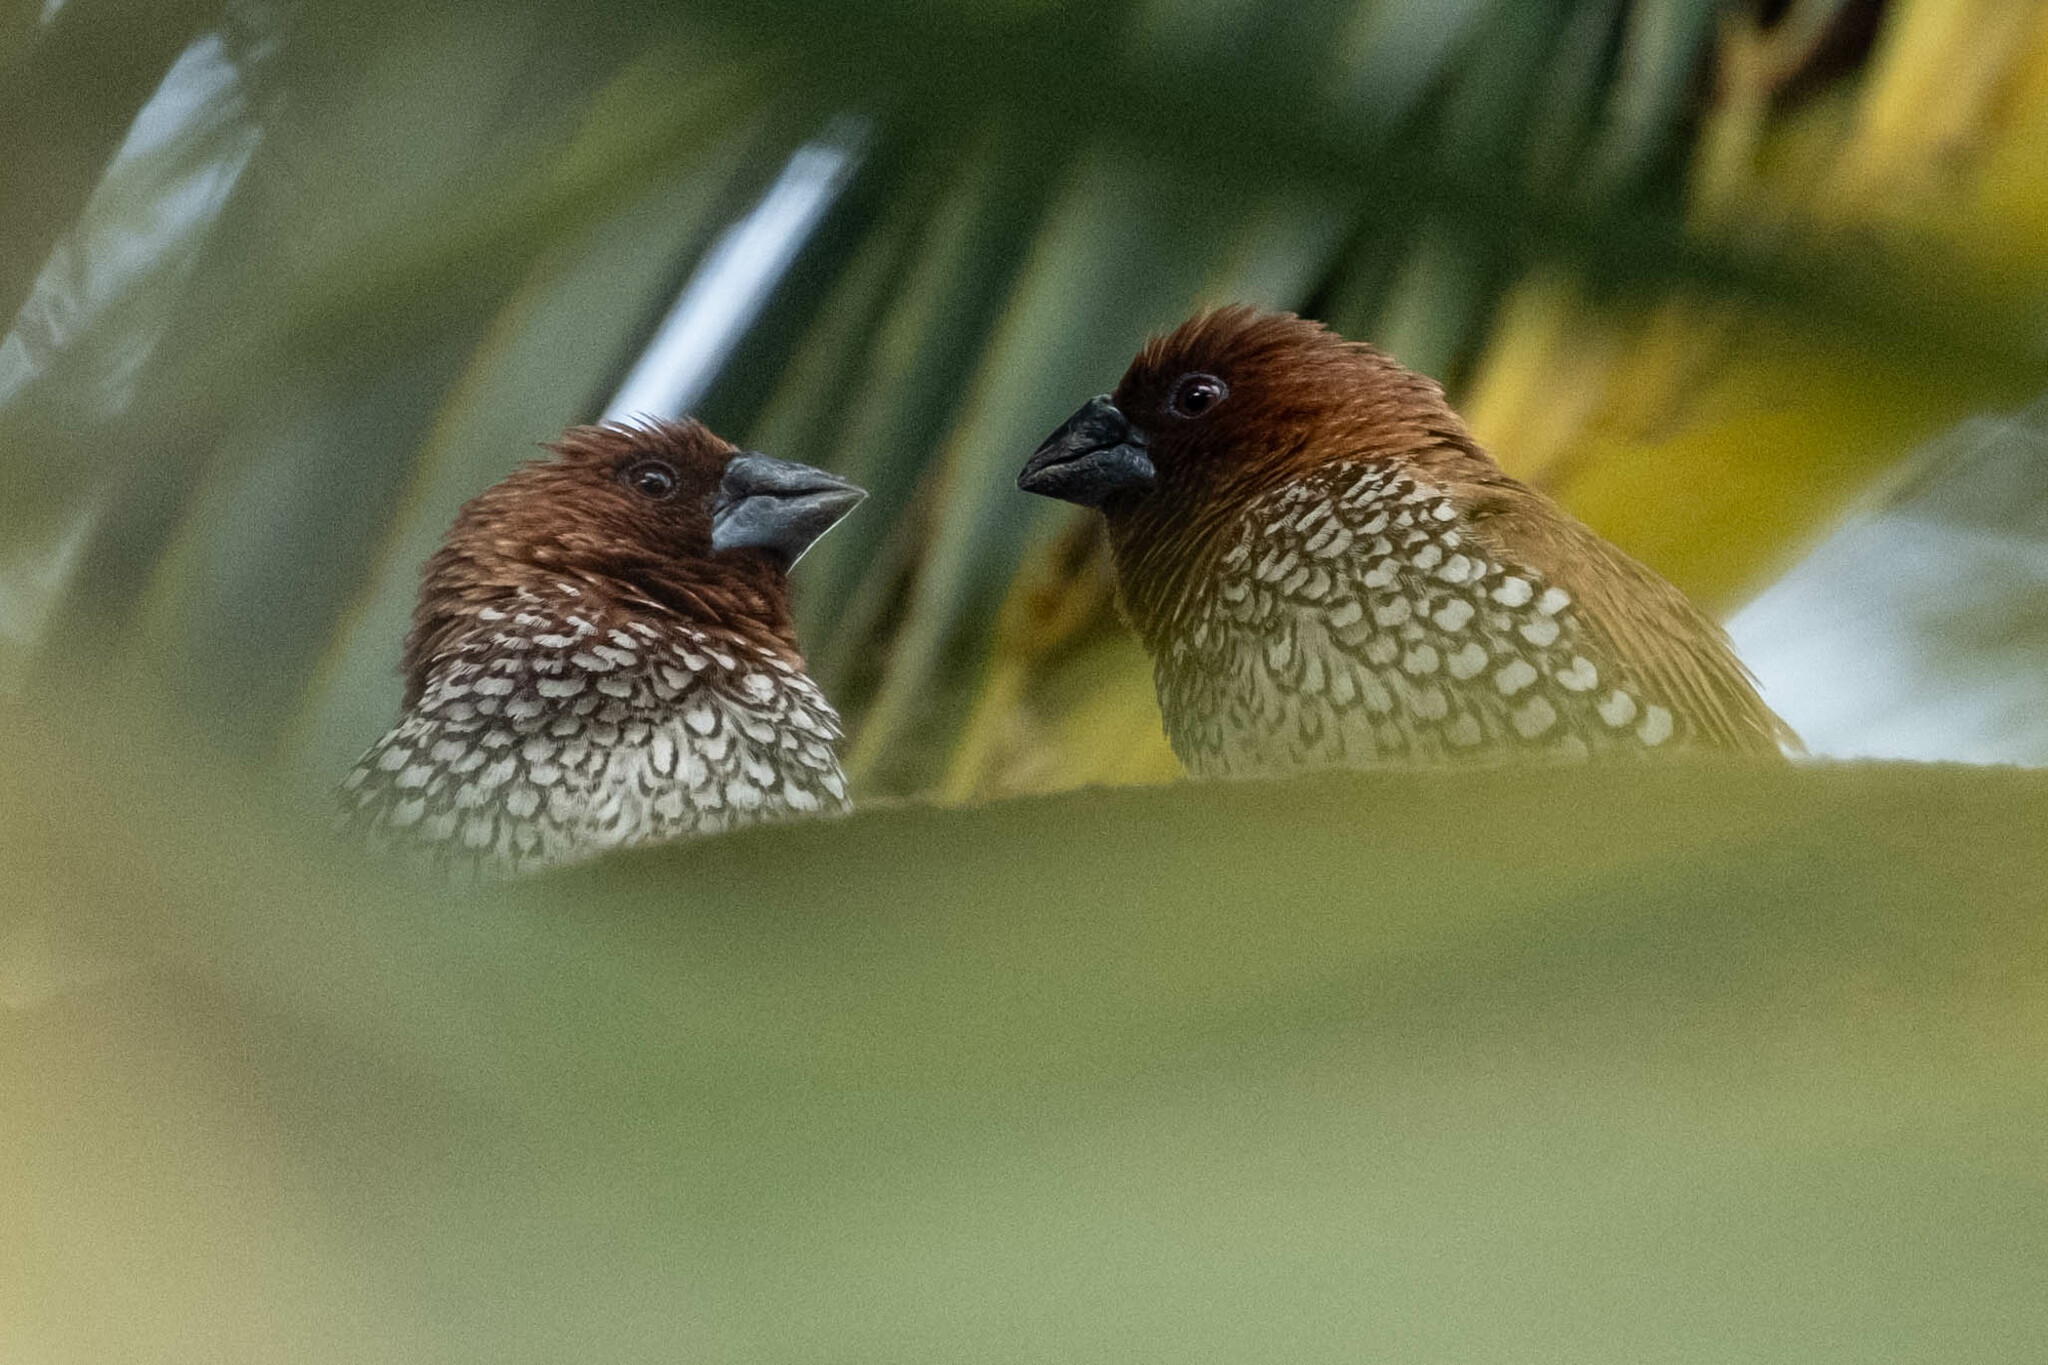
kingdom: Animalia
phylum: Chordata
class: Aves
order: Passeriformes
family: Estrildidae
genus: Lonchura
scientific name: Lonchura punctulata
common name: Scaly-breasted munia
